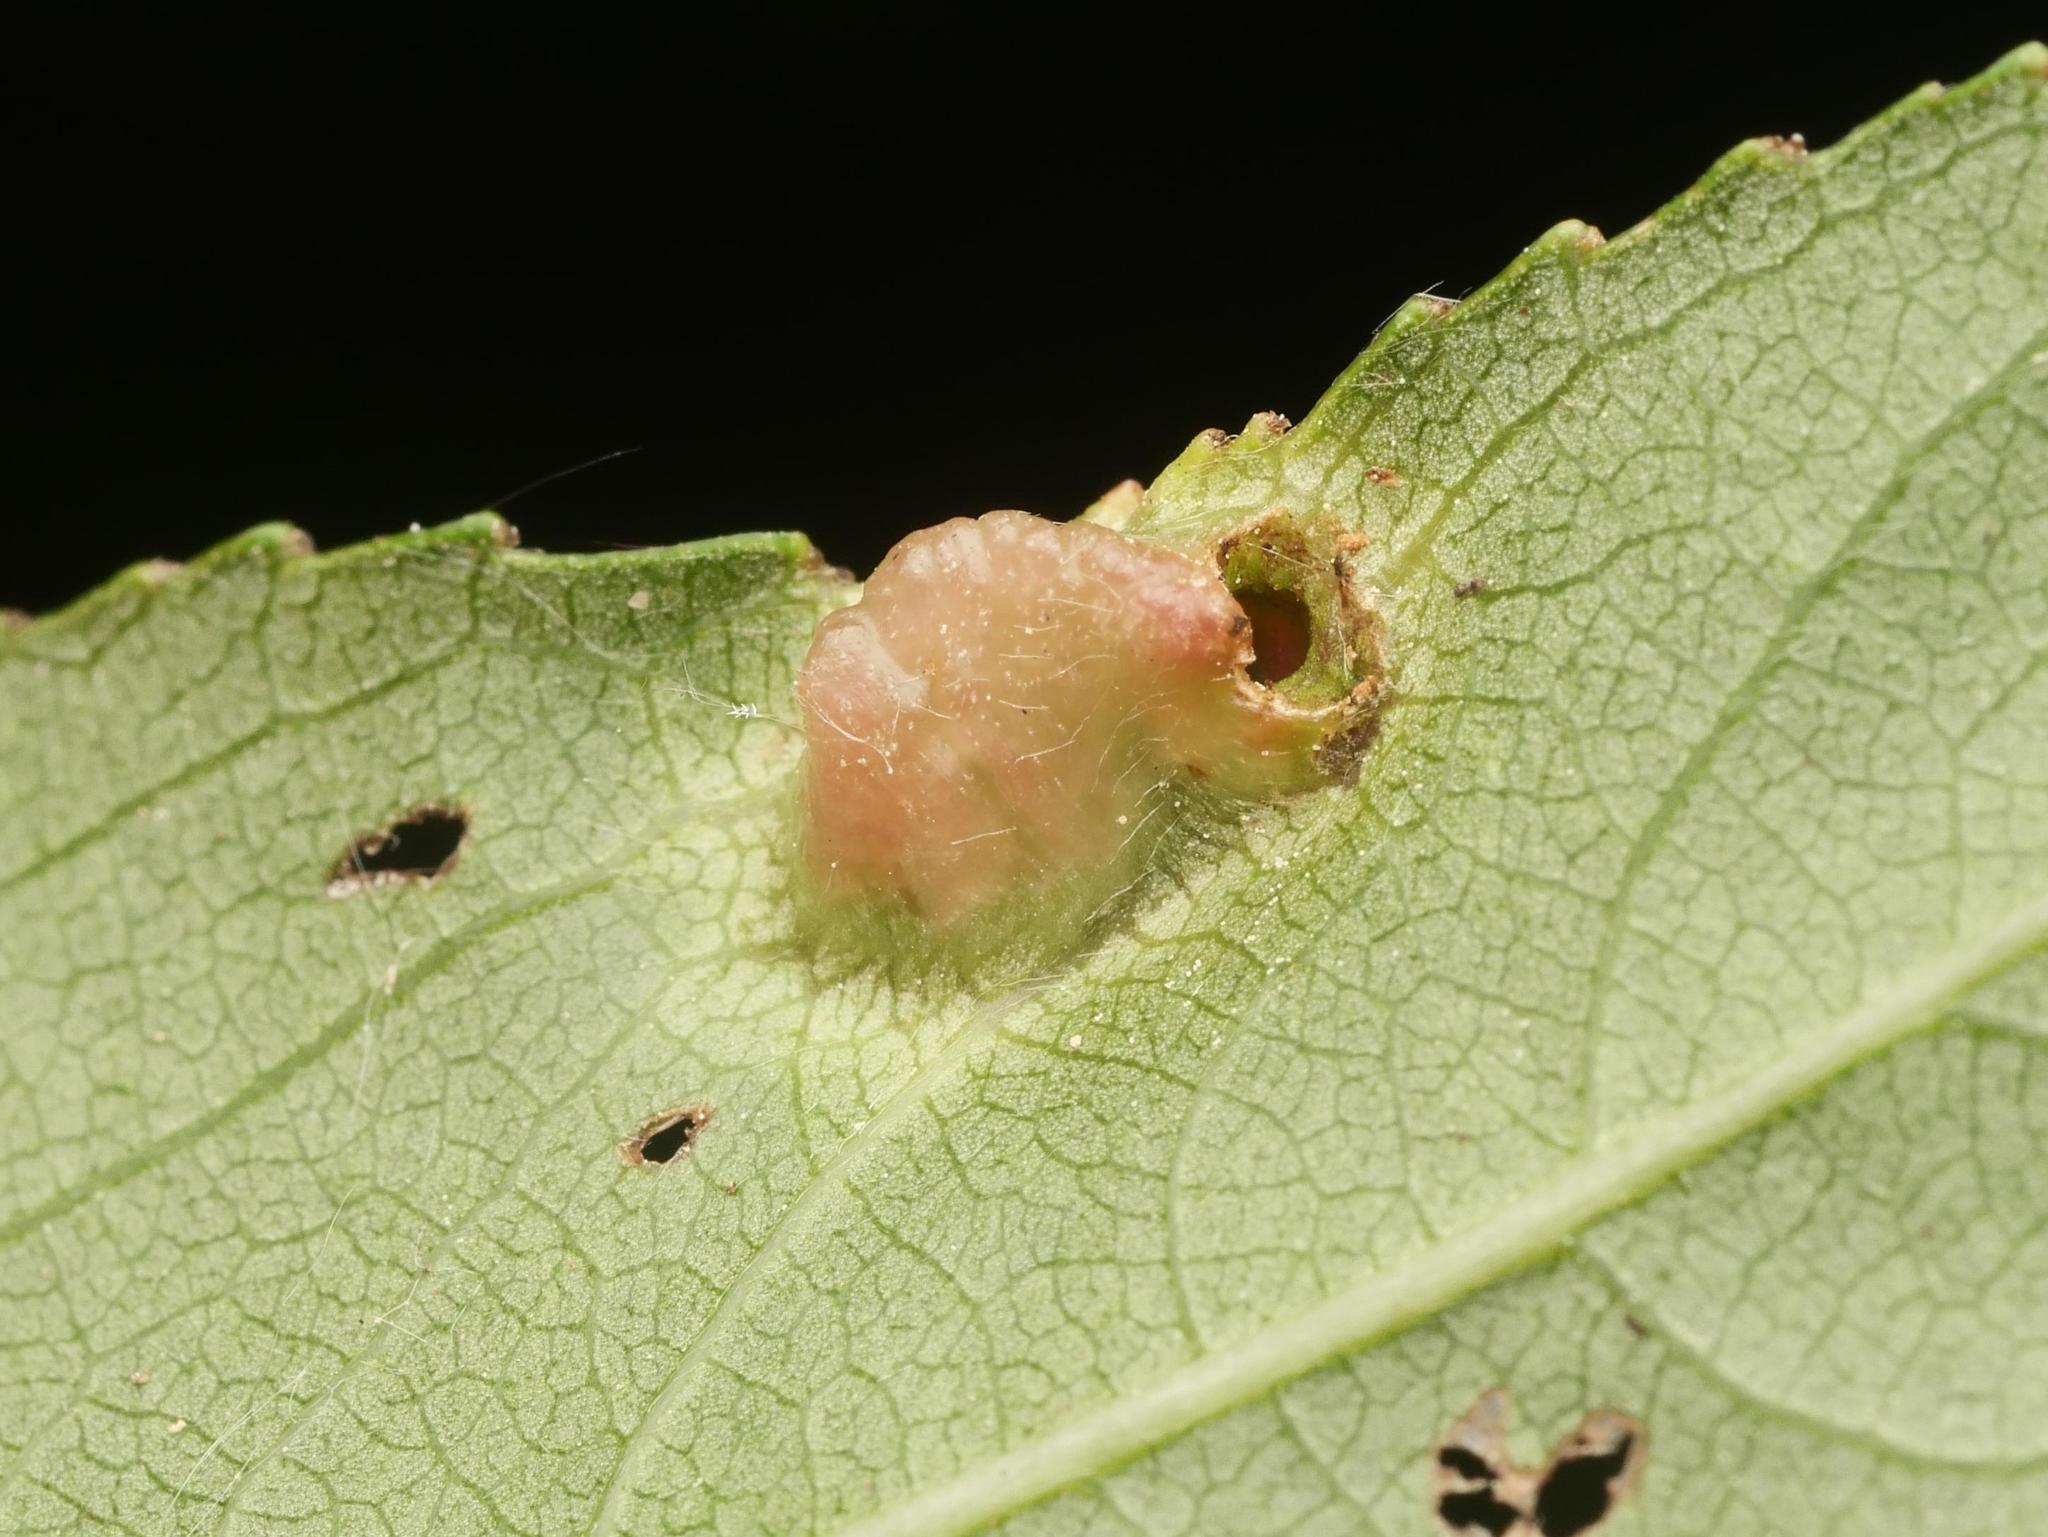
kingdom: Animalia
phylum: Arthropoda
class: Insecta
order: Hymenoptera
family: Tenthredinidae
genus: Pontania
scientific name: Pontania proxima
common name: Common sawfly
